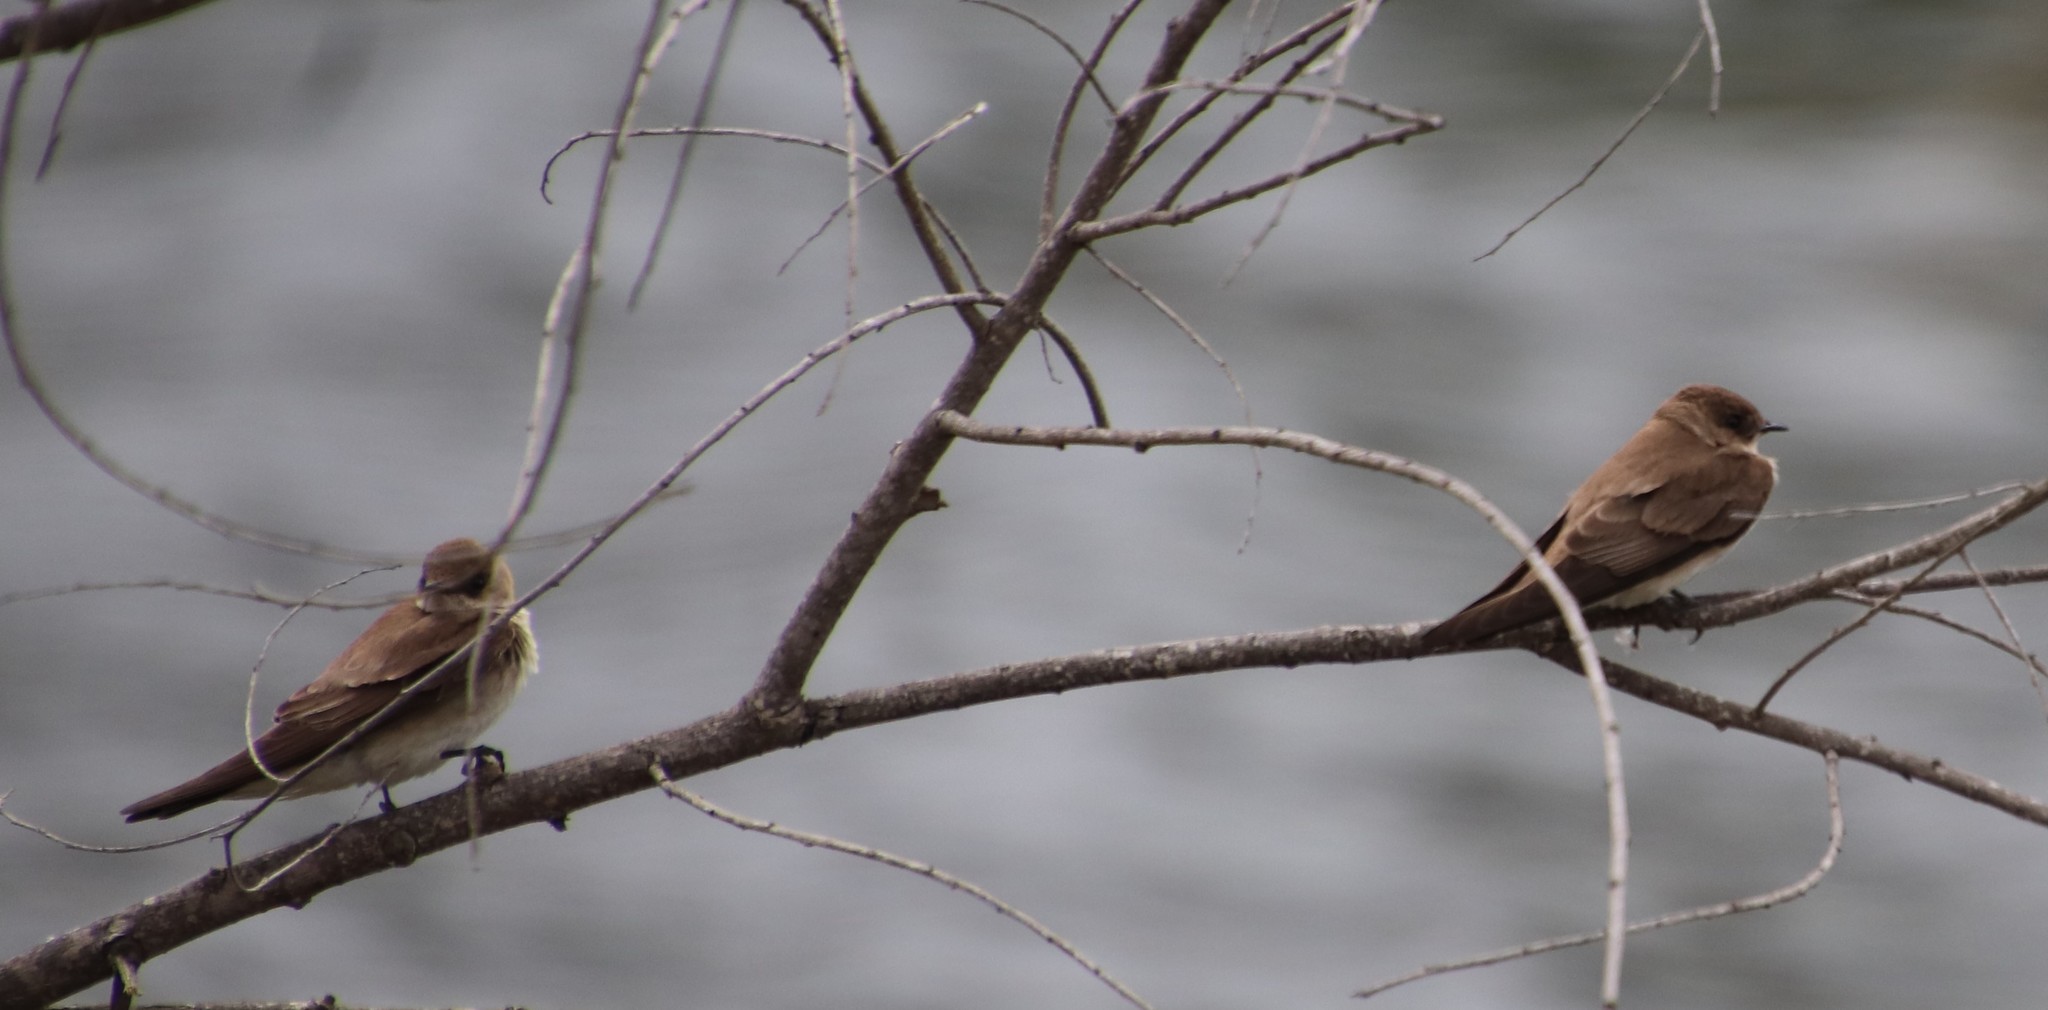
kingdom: Animalia
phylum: Chordata
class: Aves
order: Passeriformes
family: Hirundinidae
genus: Stelgidopteryx
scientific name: Stelgidopteryx serripennis
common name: Northern rough-winged swallow
